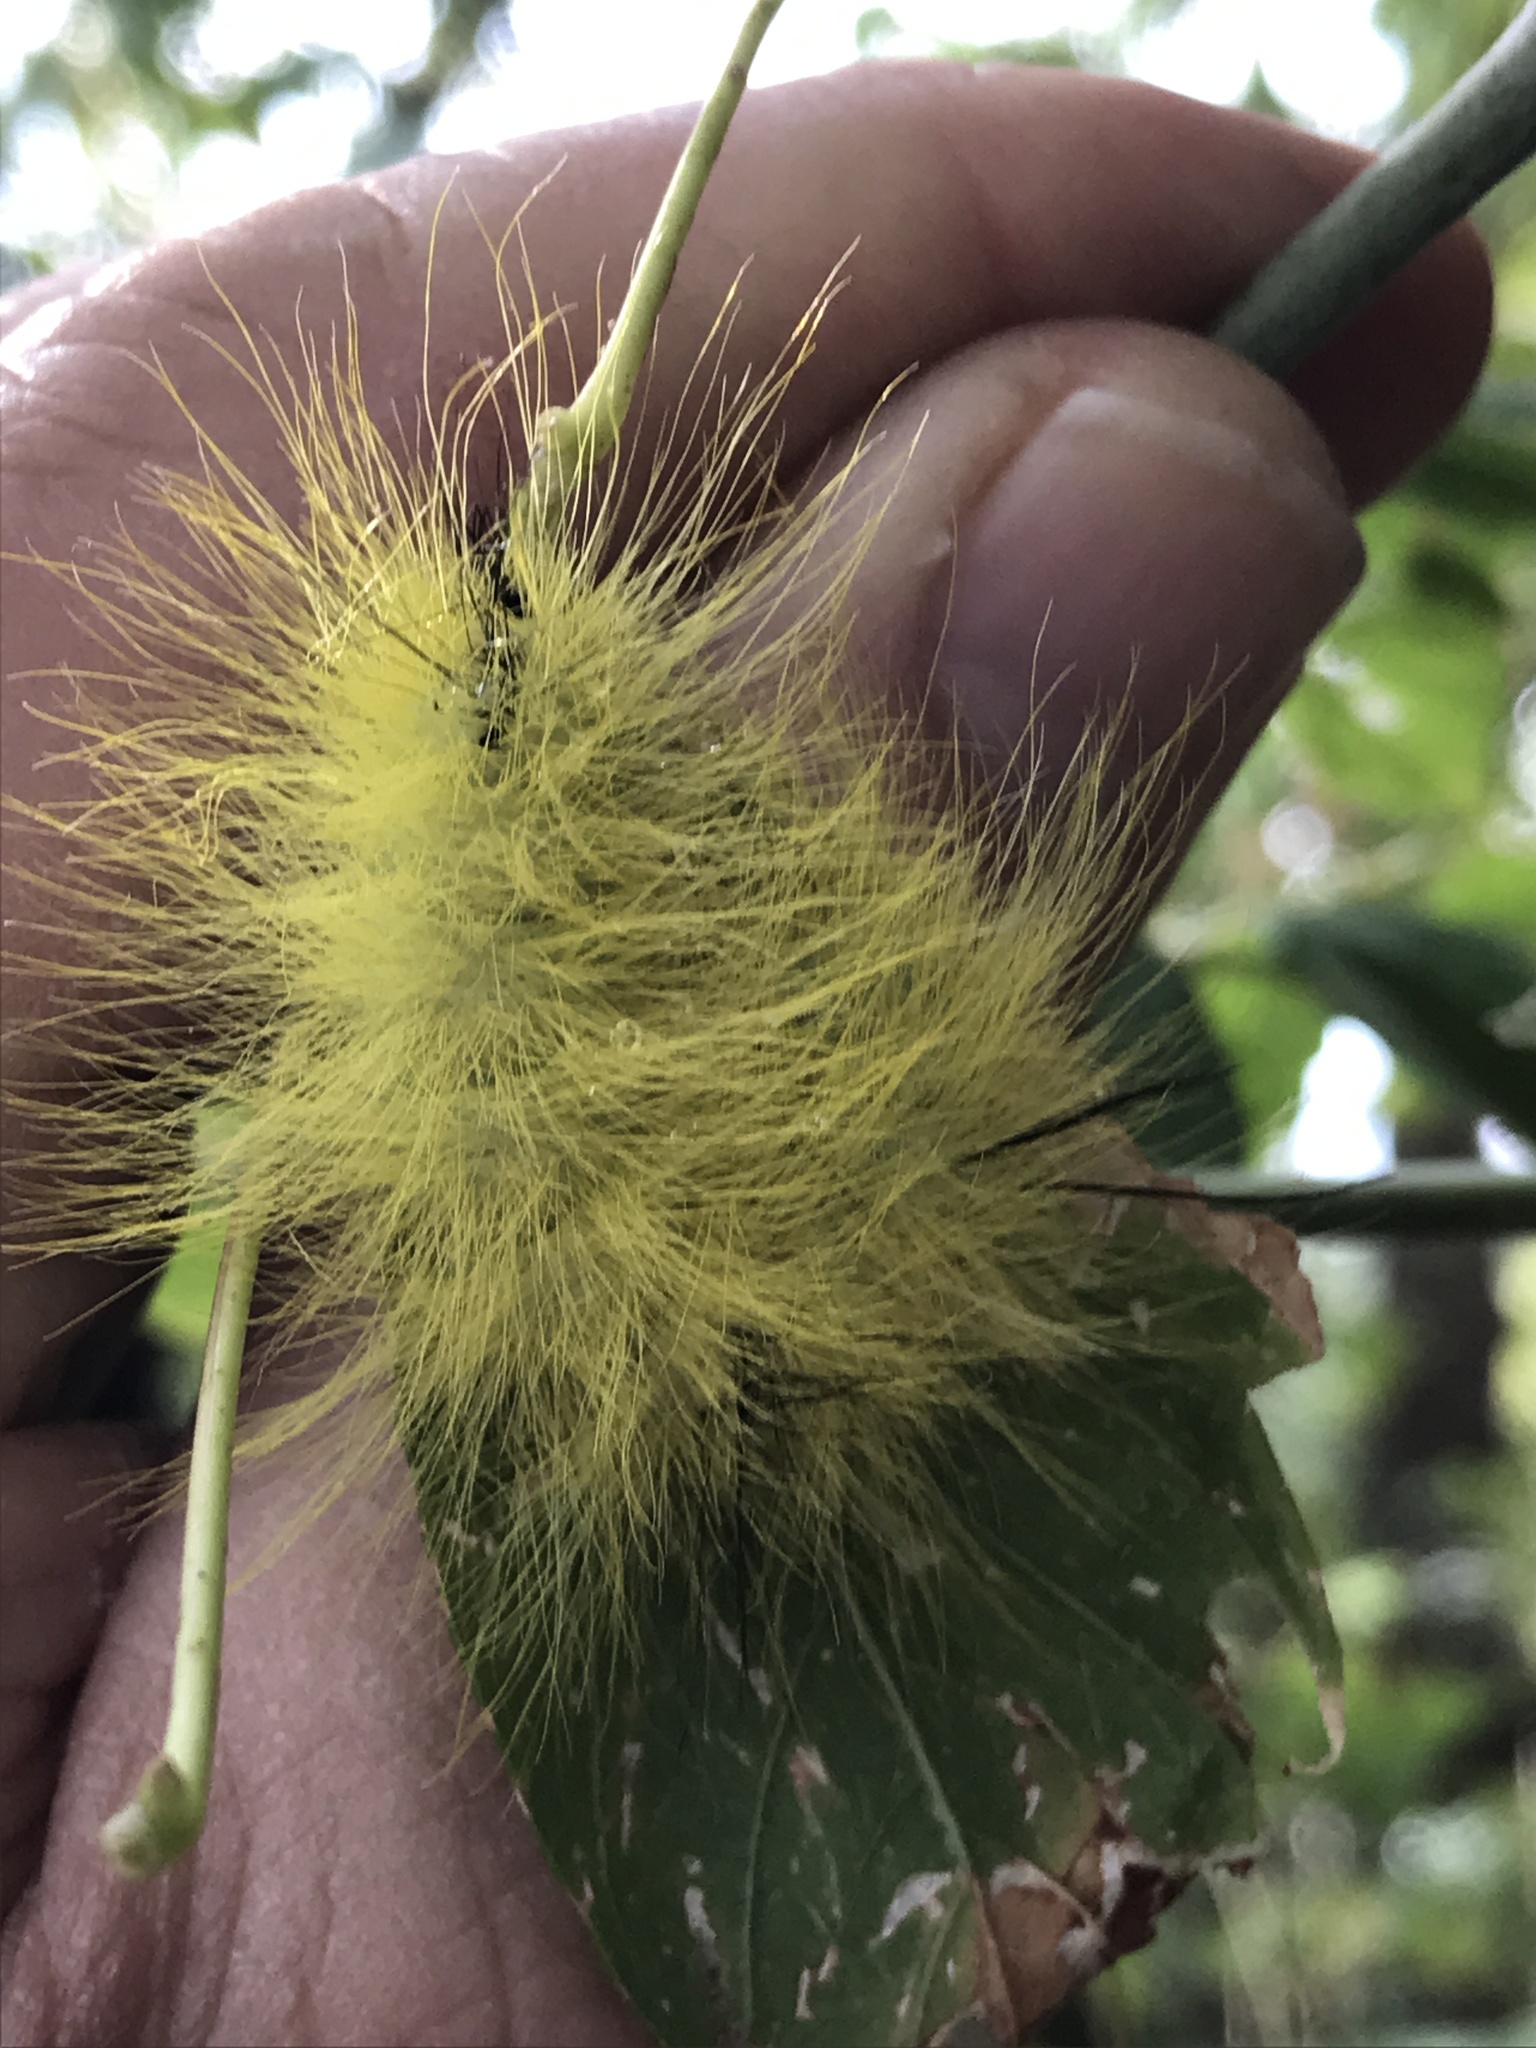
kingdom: Animalia
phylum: Arthropoda
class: Insecta
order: Lepidoptera
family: Noctuidae
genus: Acronicta
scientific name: Acronicta americana
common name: American dagger
